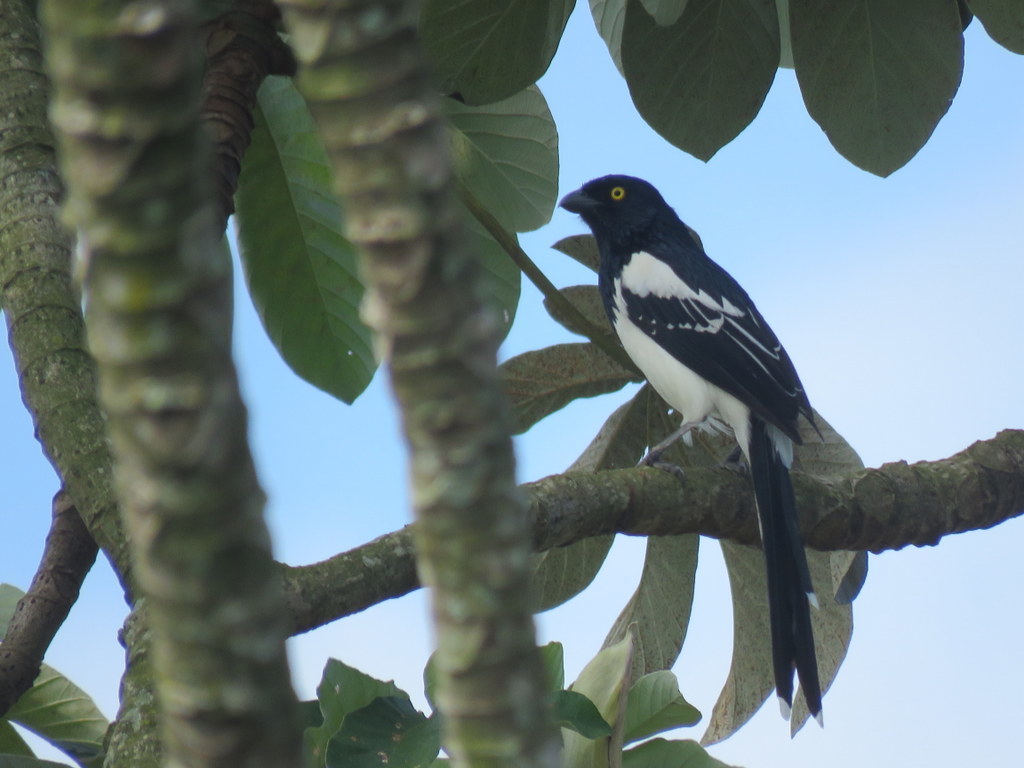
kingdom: Animalia
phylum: Chordata
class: Aves
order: Passeriformes
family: Thraupidae
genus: Cissopis
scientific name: Cissopis leverianus
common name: Magpie tanager
